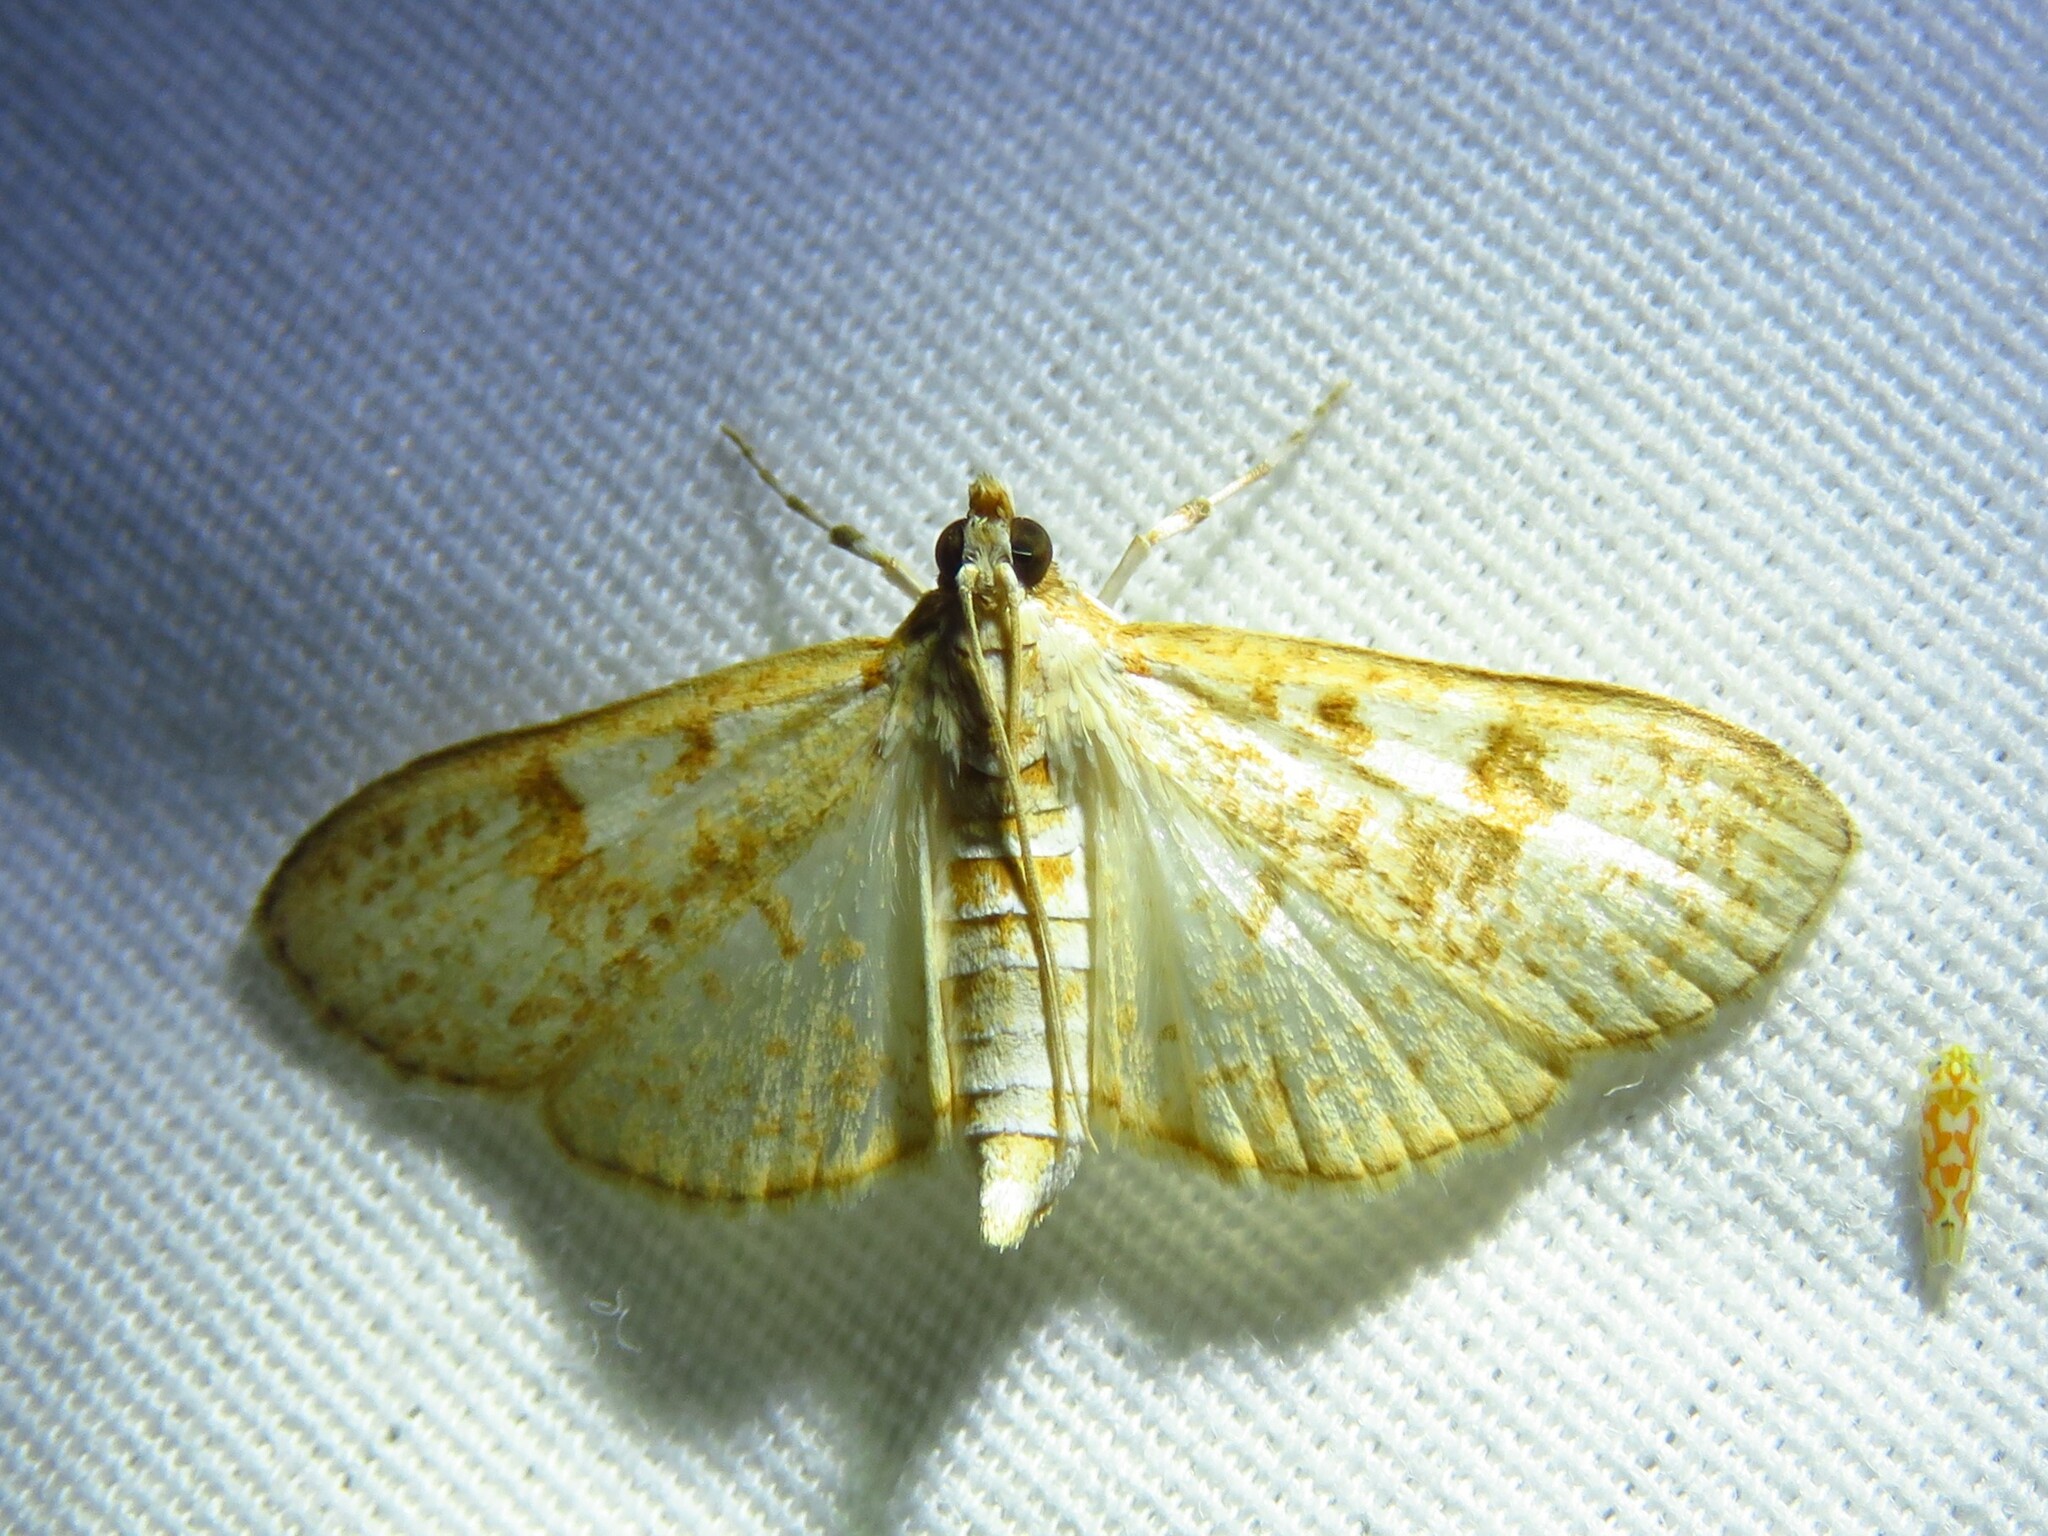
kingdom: Animalia
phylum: Arthropoda
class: Insecta
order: Lepidoptera
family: Crambidae
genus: Palpita
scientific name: Palpita freemanalis
